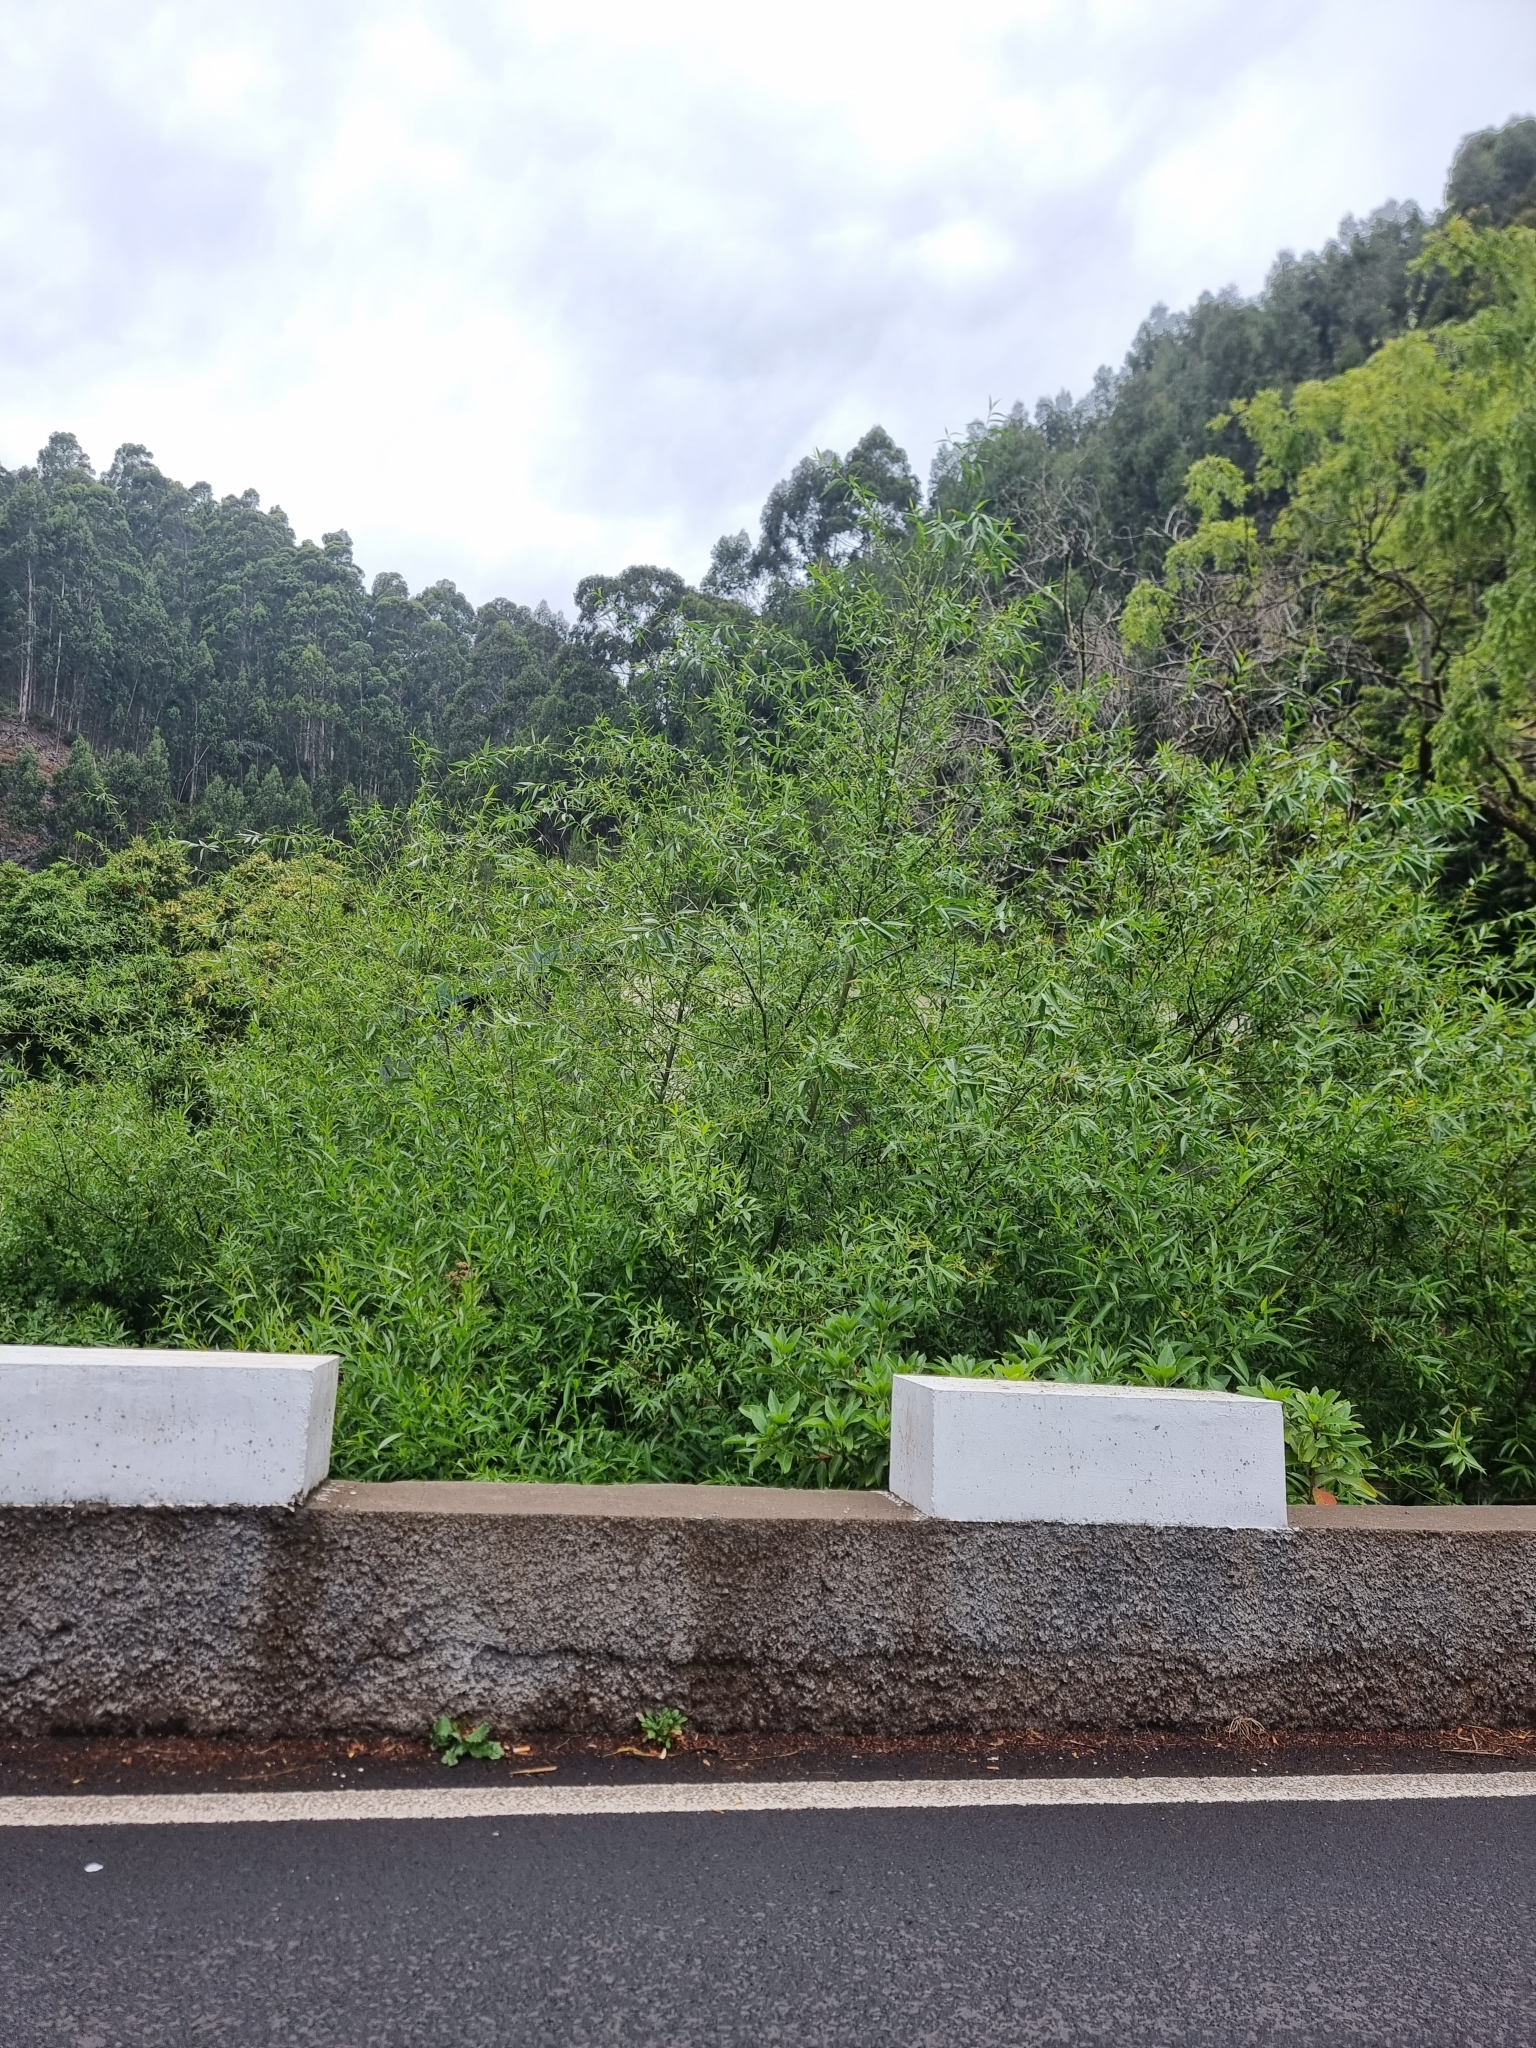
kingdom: Plantae
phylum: Tracheophyta
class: Magnoliopsida
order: Malpighiales
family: Salicaceae
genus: Salix
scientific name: Salix canariensis
